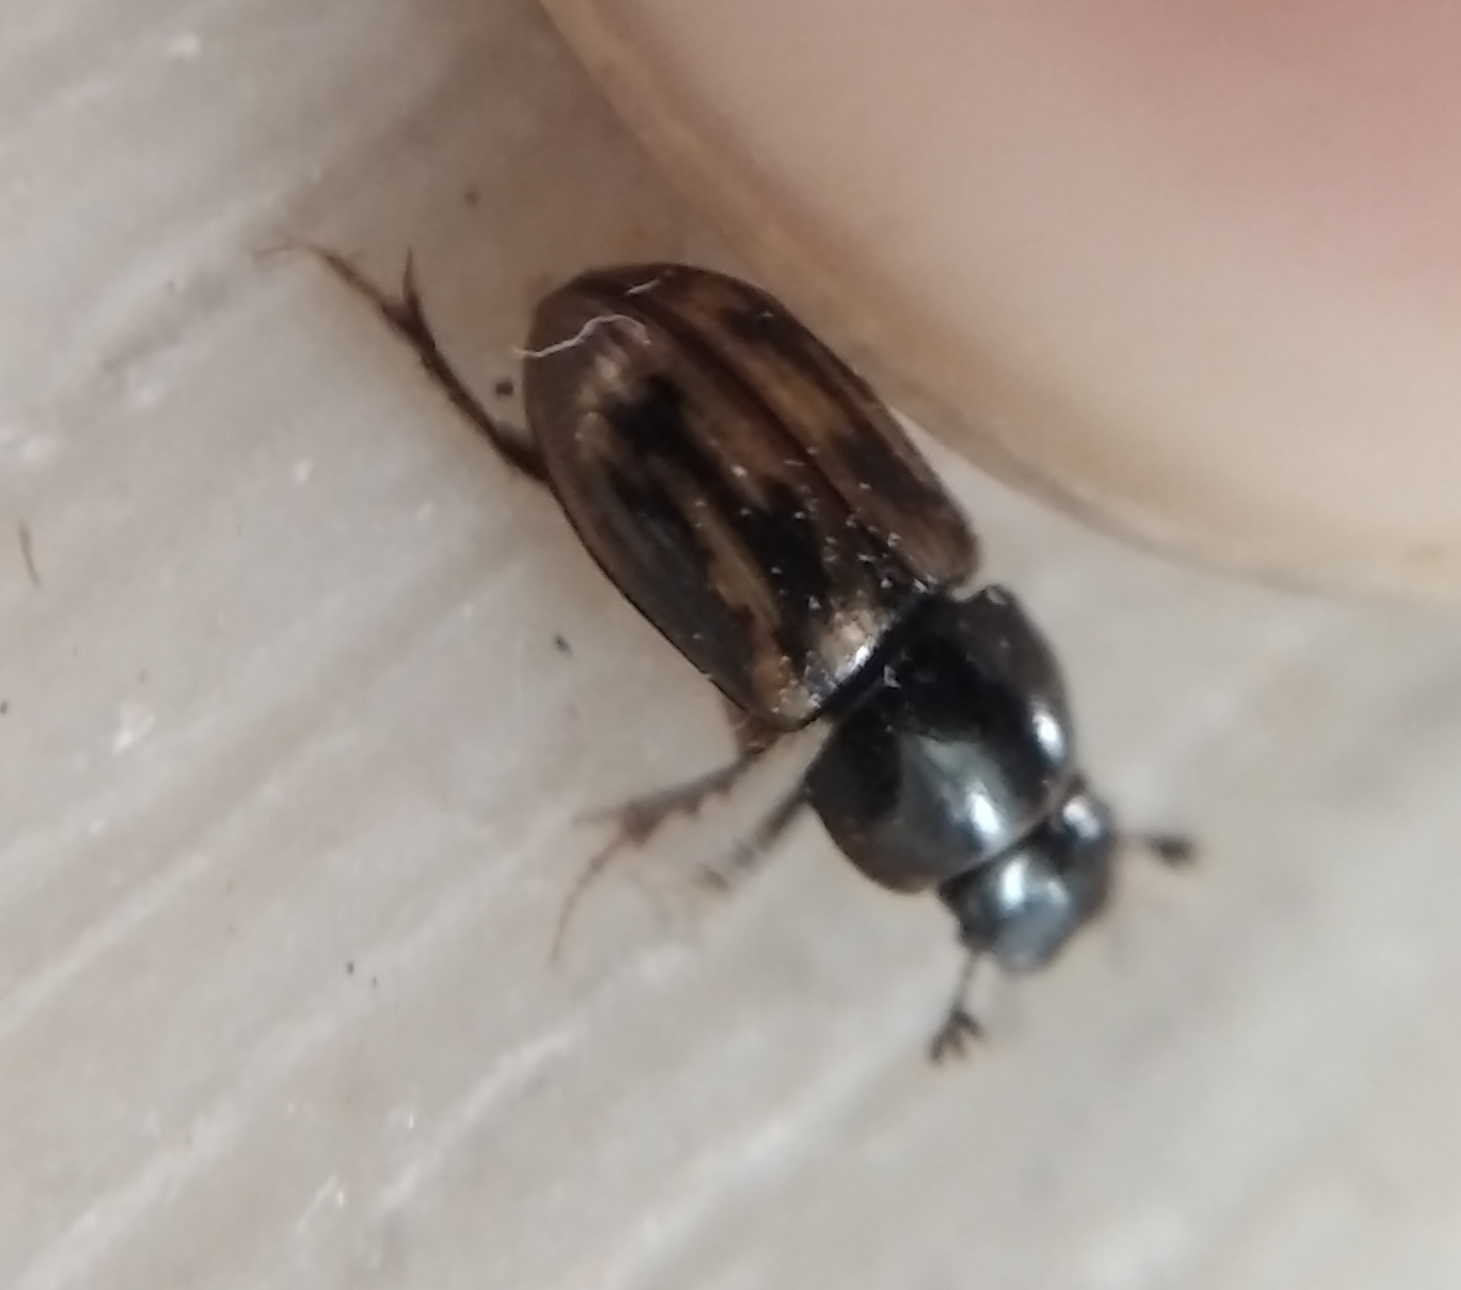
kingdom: Animalia
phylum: Arthropoda
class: Insecta
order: Coleoptera
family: Scarabaeidae
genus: Chilothorax
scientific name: Chilothorax distinctus
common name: Maculated dung beetle
